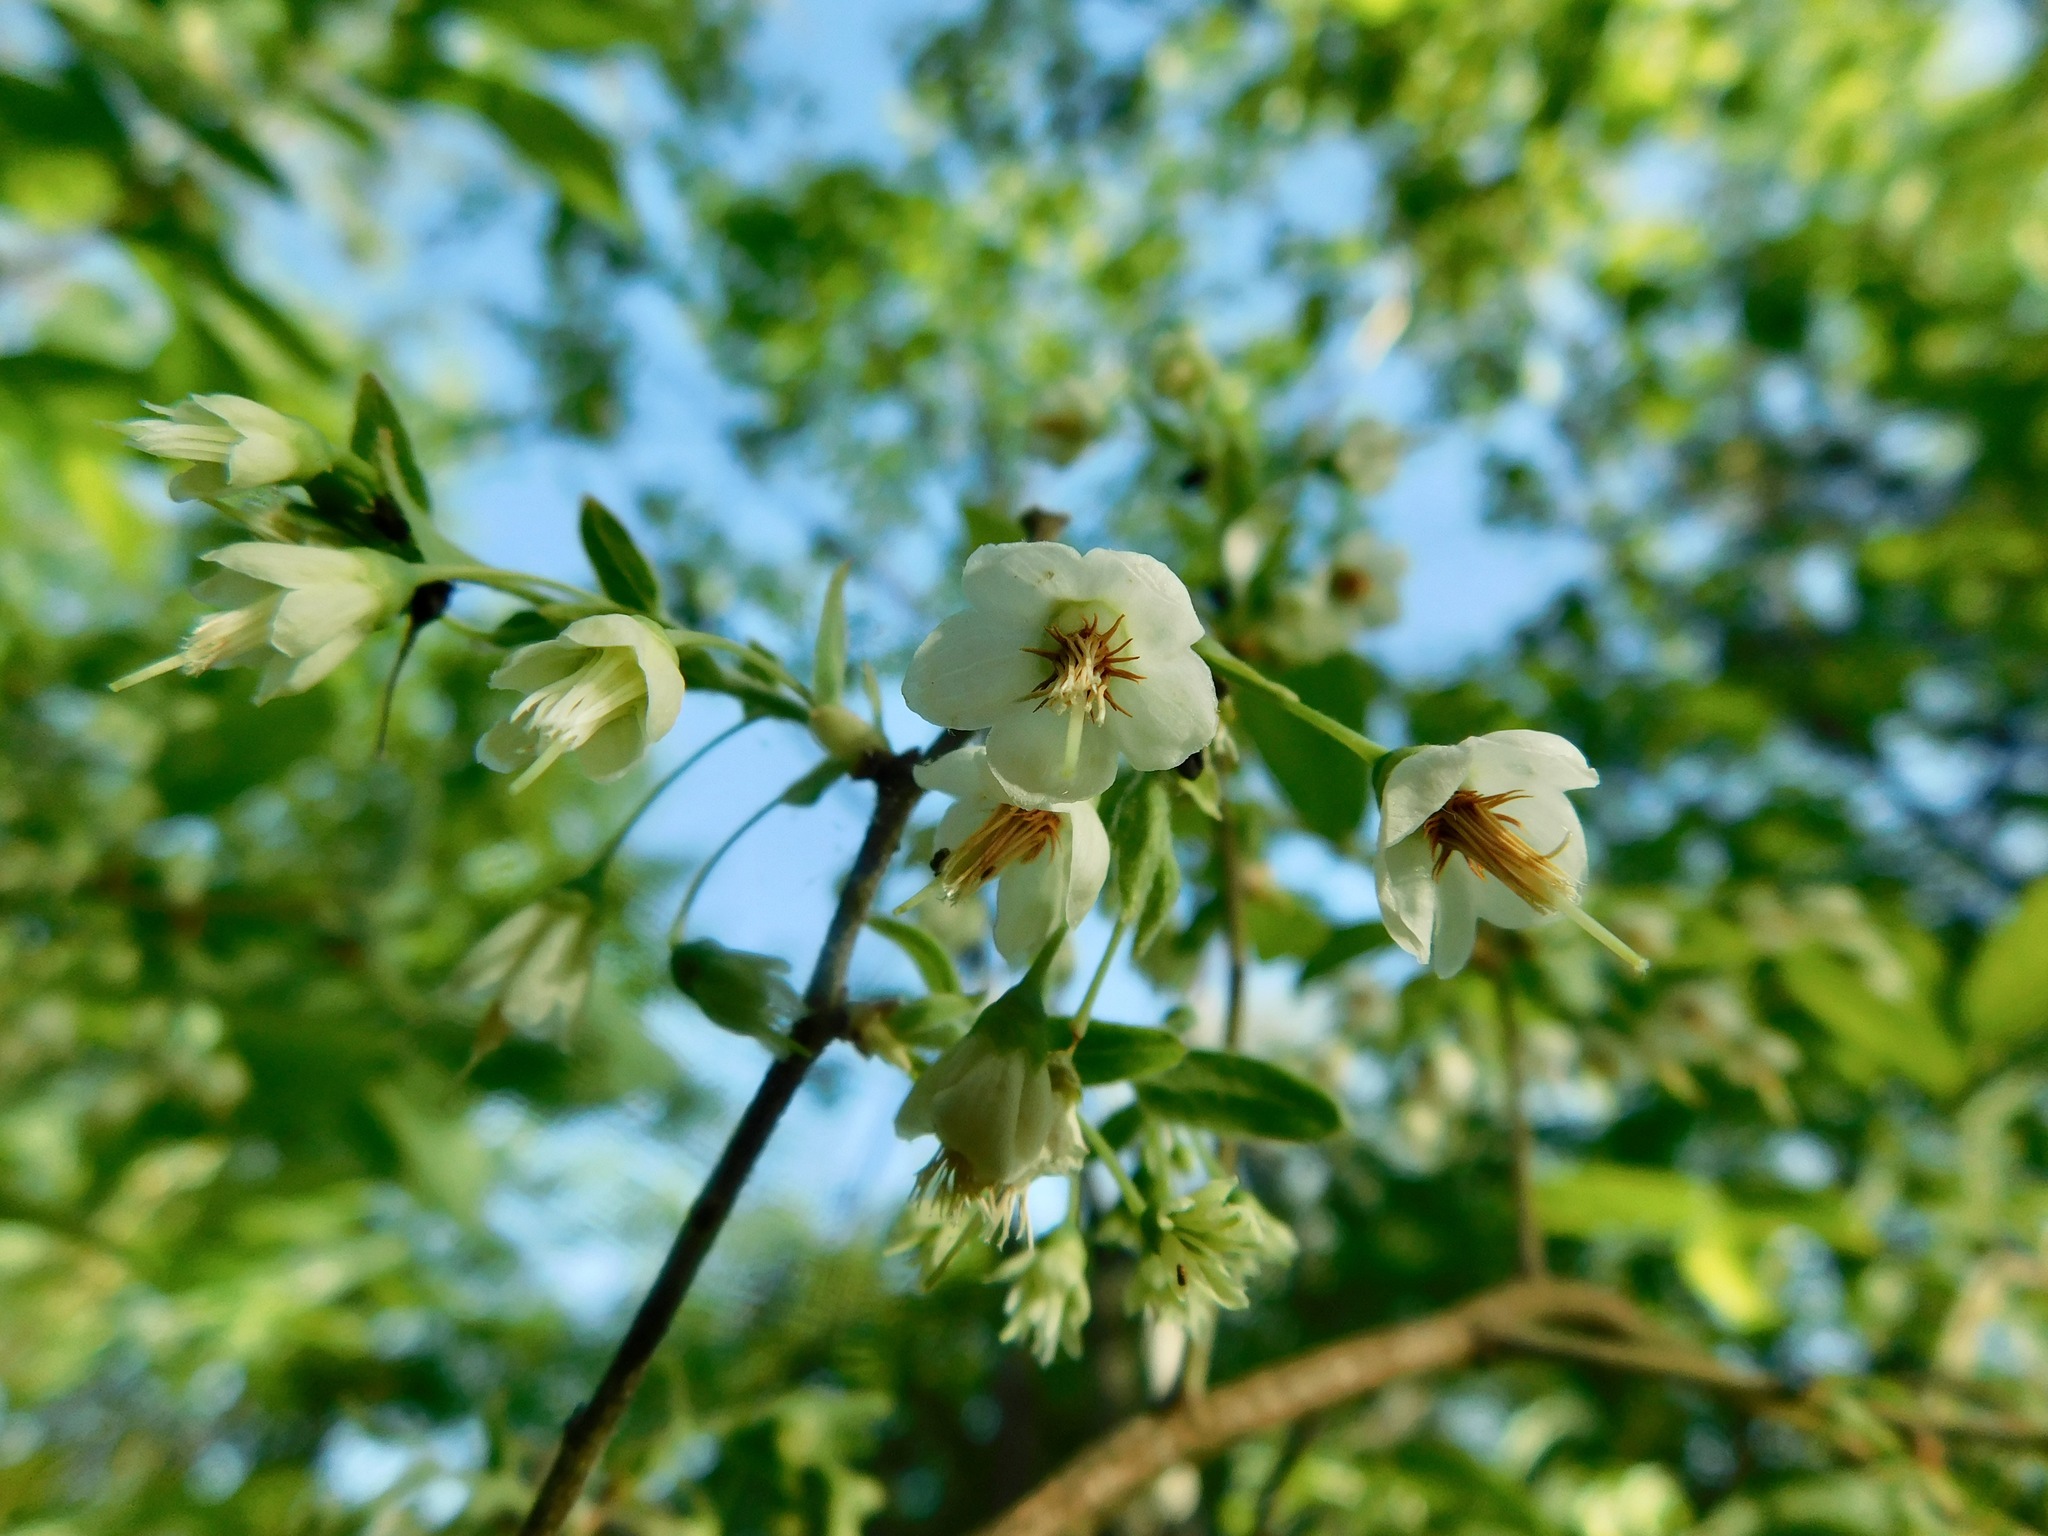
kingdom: Plantae
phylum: Tracheophyta
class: Magnoliopsida
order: Ericales
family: Ericaceae
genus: Vaccinium
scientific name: Vaccinium stamineum
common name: Deerberry
